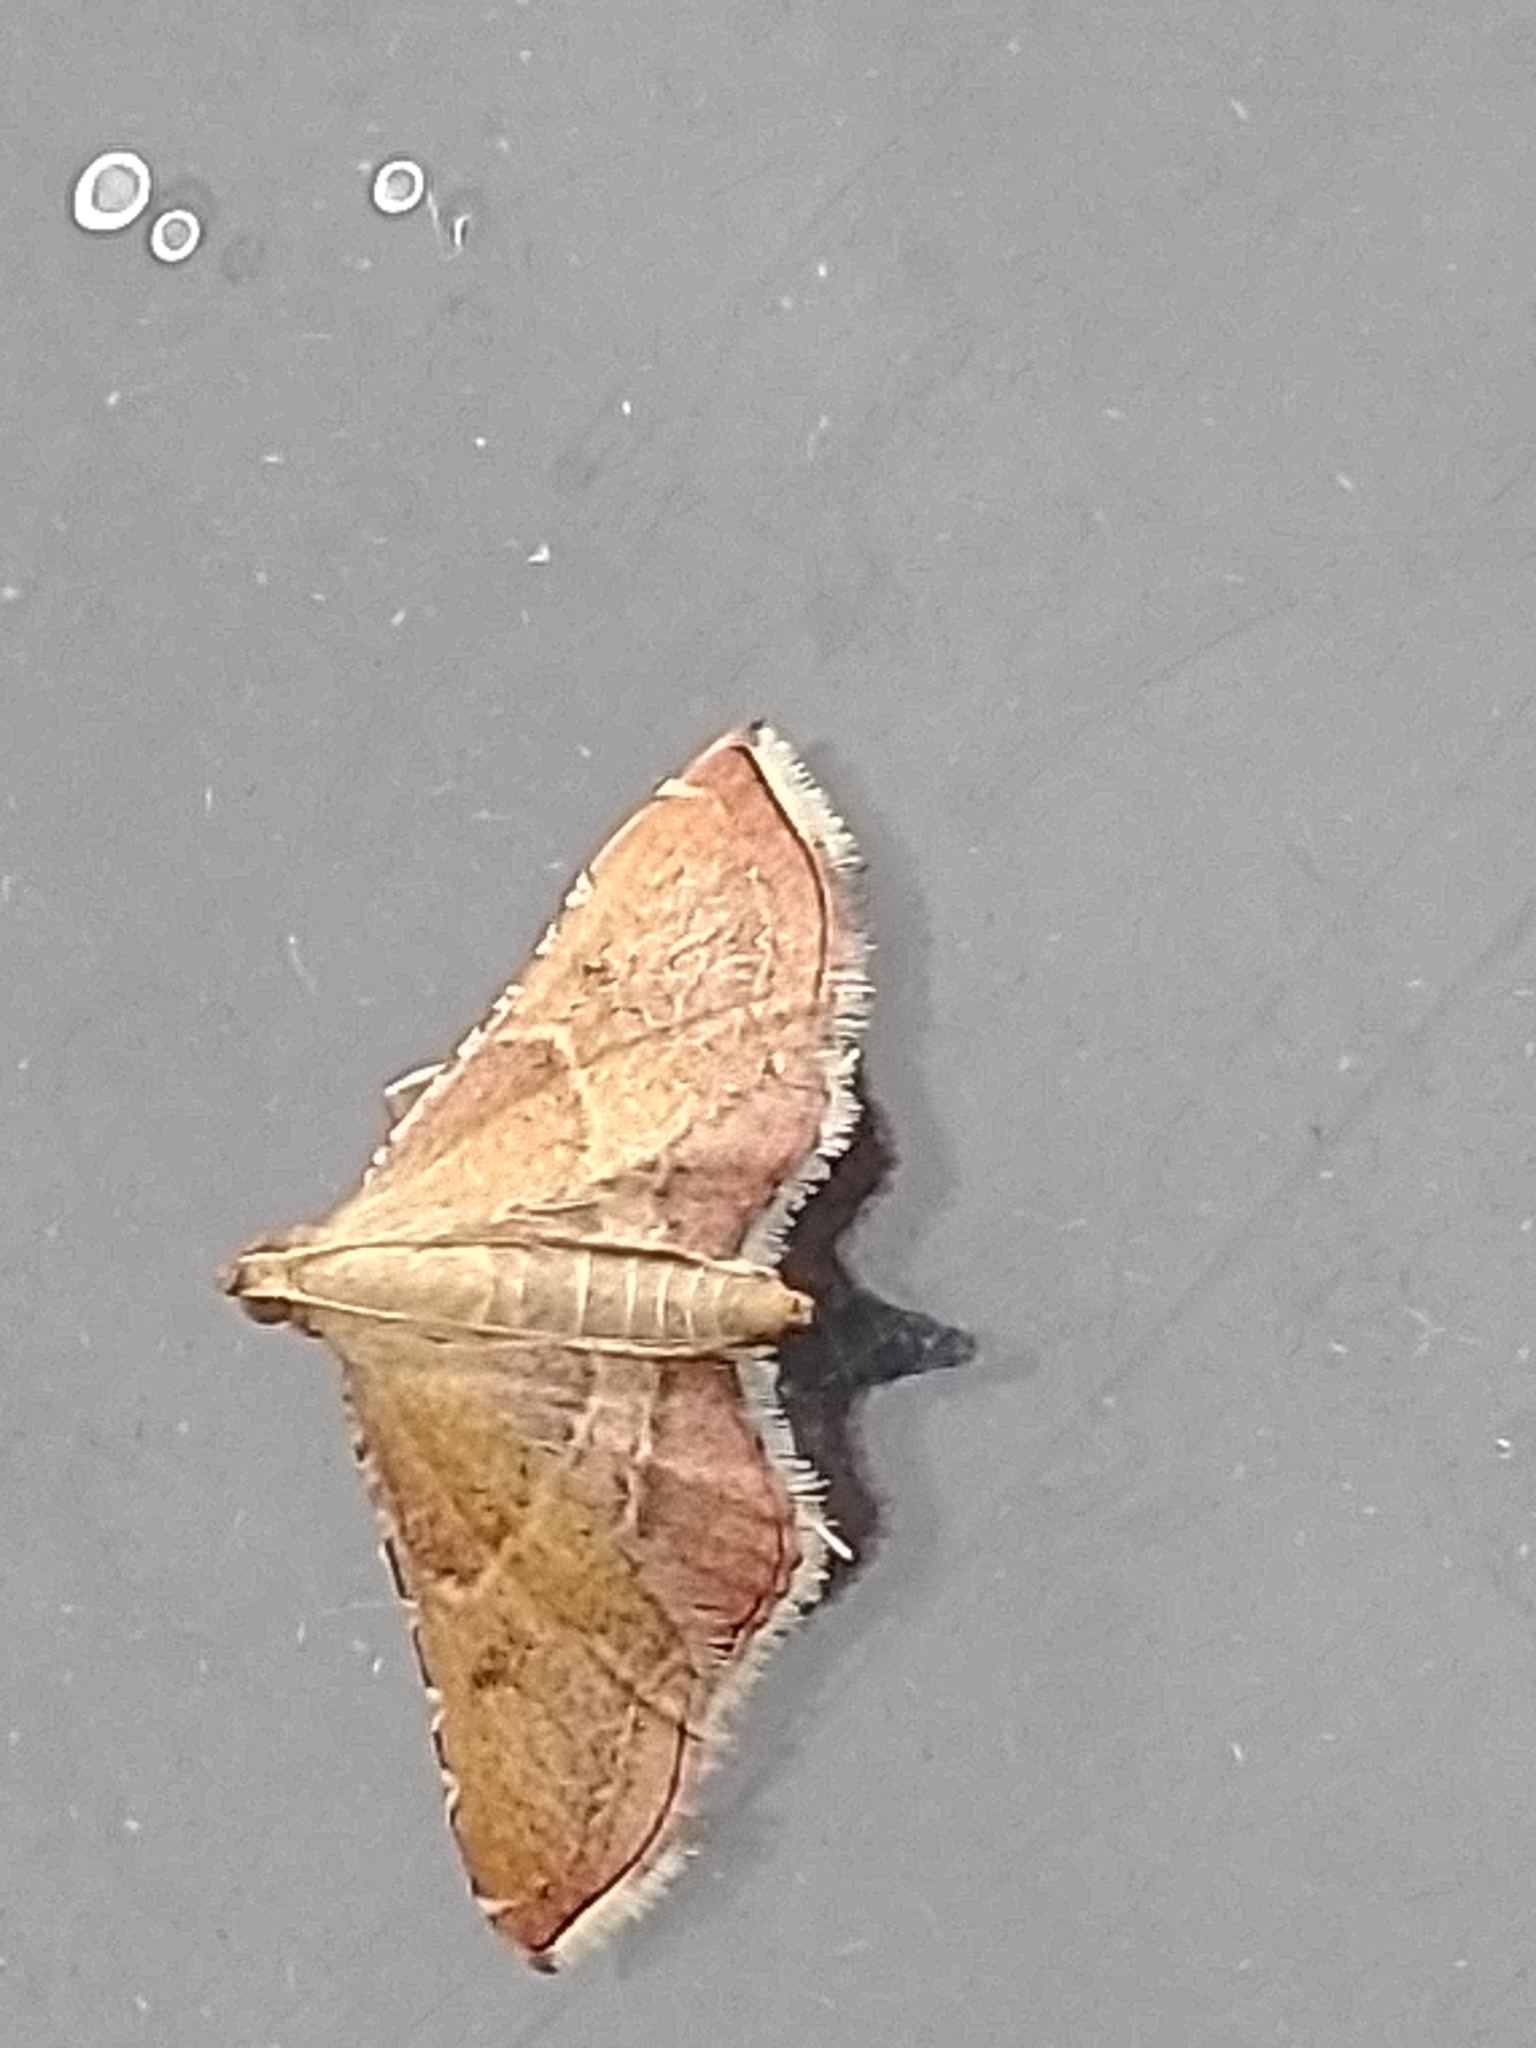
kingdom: Animalia
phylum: Arthropoda
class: Insecta
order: Lepidoptera
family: Pyralidae
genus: Endotricha
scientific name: Endotricha flammealis
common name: Rosy tabby
